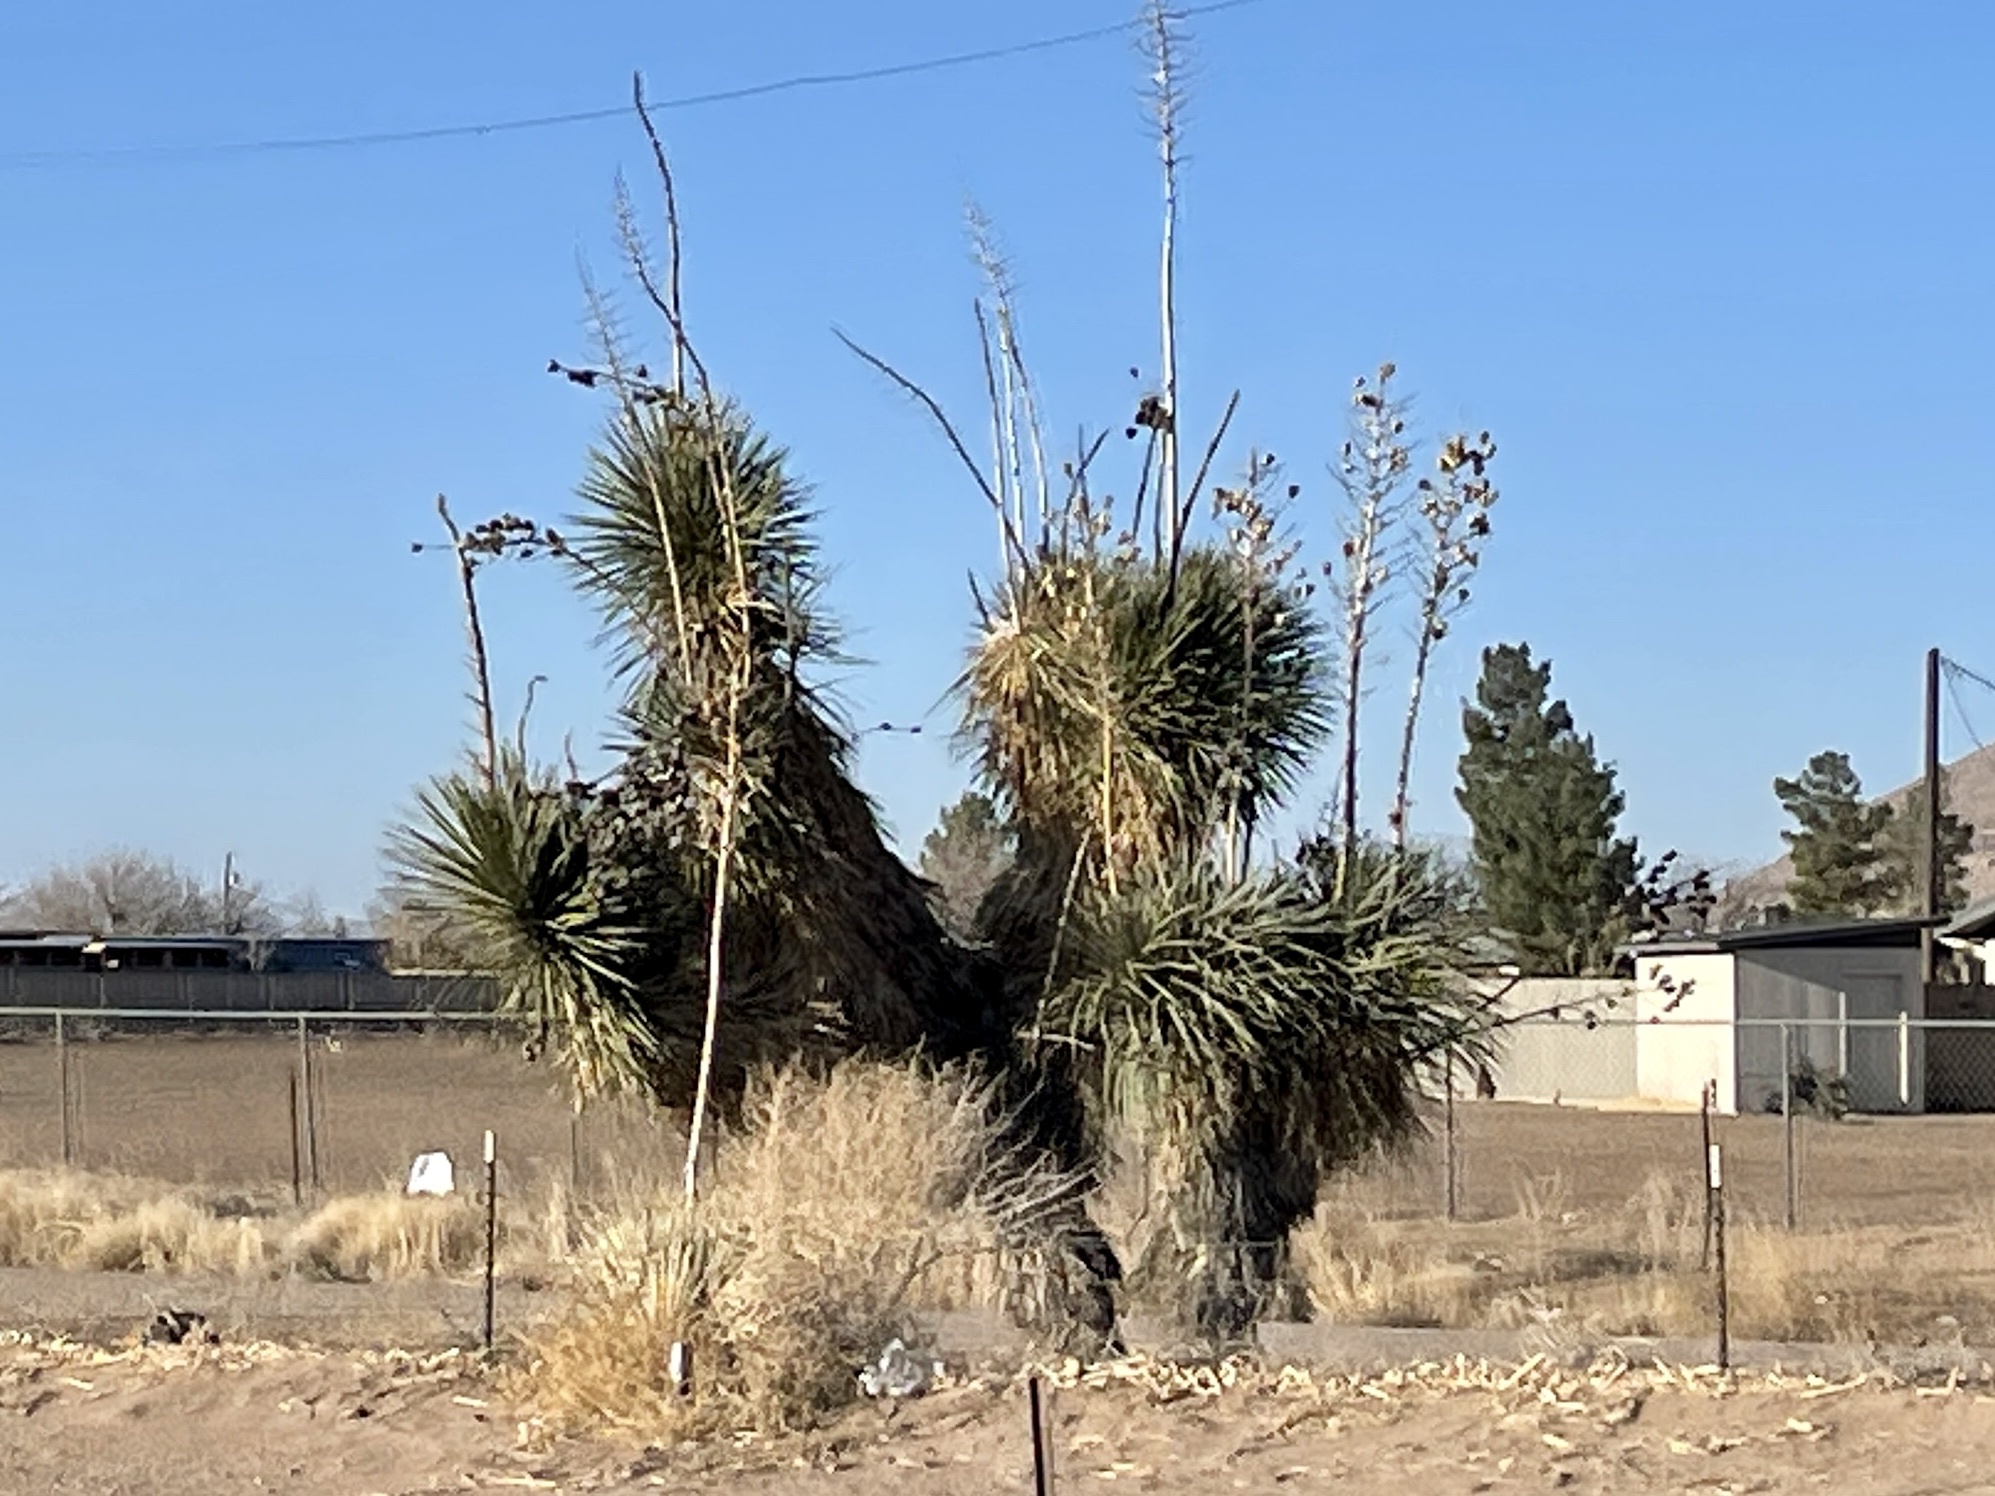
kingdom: Plantae
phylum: Tracheophyta
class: Liliopsida
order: Asparagales
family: Asparagaceae
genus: Yucca
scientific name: Yucca elata
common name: Palmella
